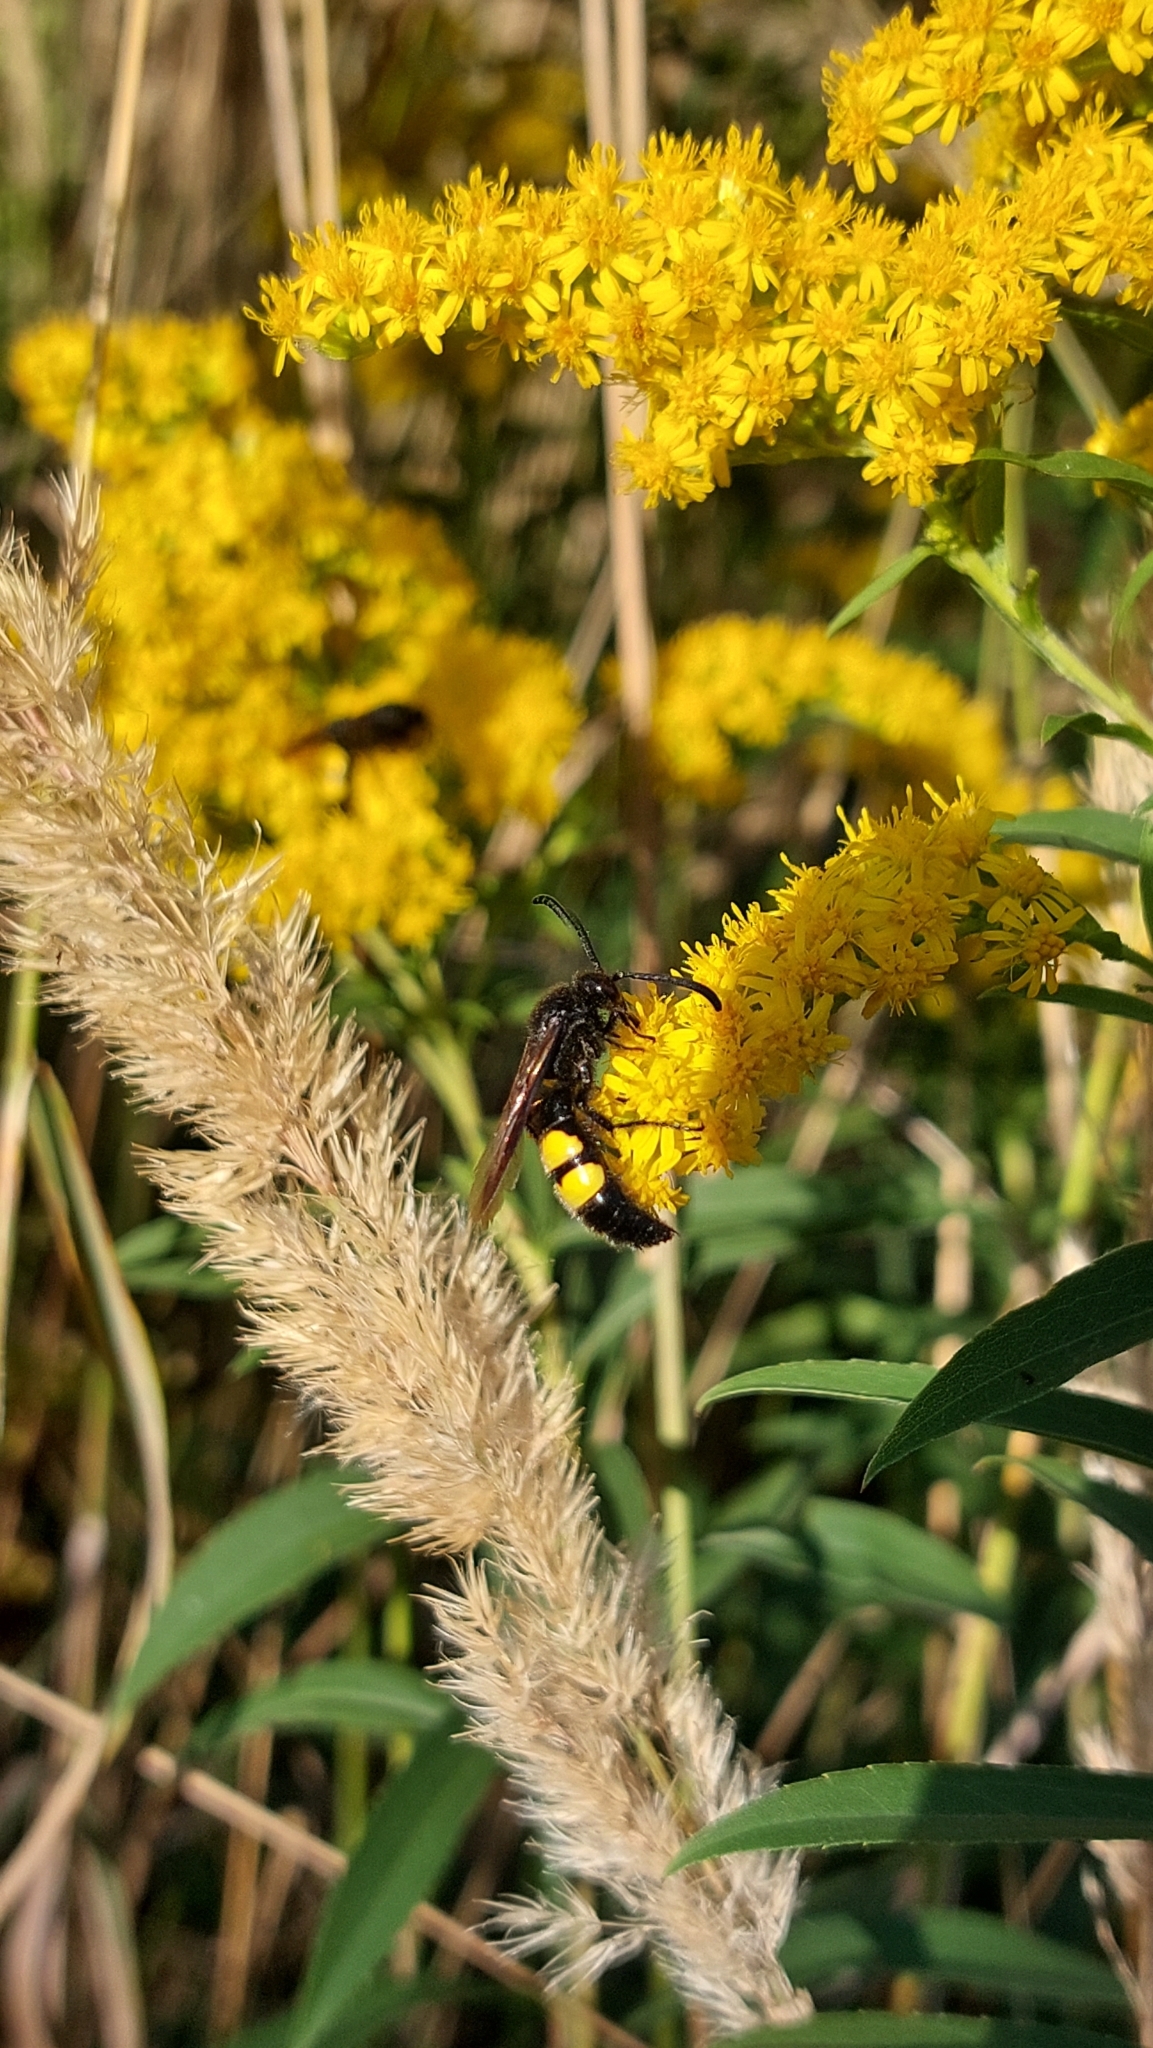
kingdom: Animalia
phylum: Arthropoda
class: Insecta
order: Hymenoptera
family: Scoliidae
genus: Scolia
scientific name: Scolia hirta
